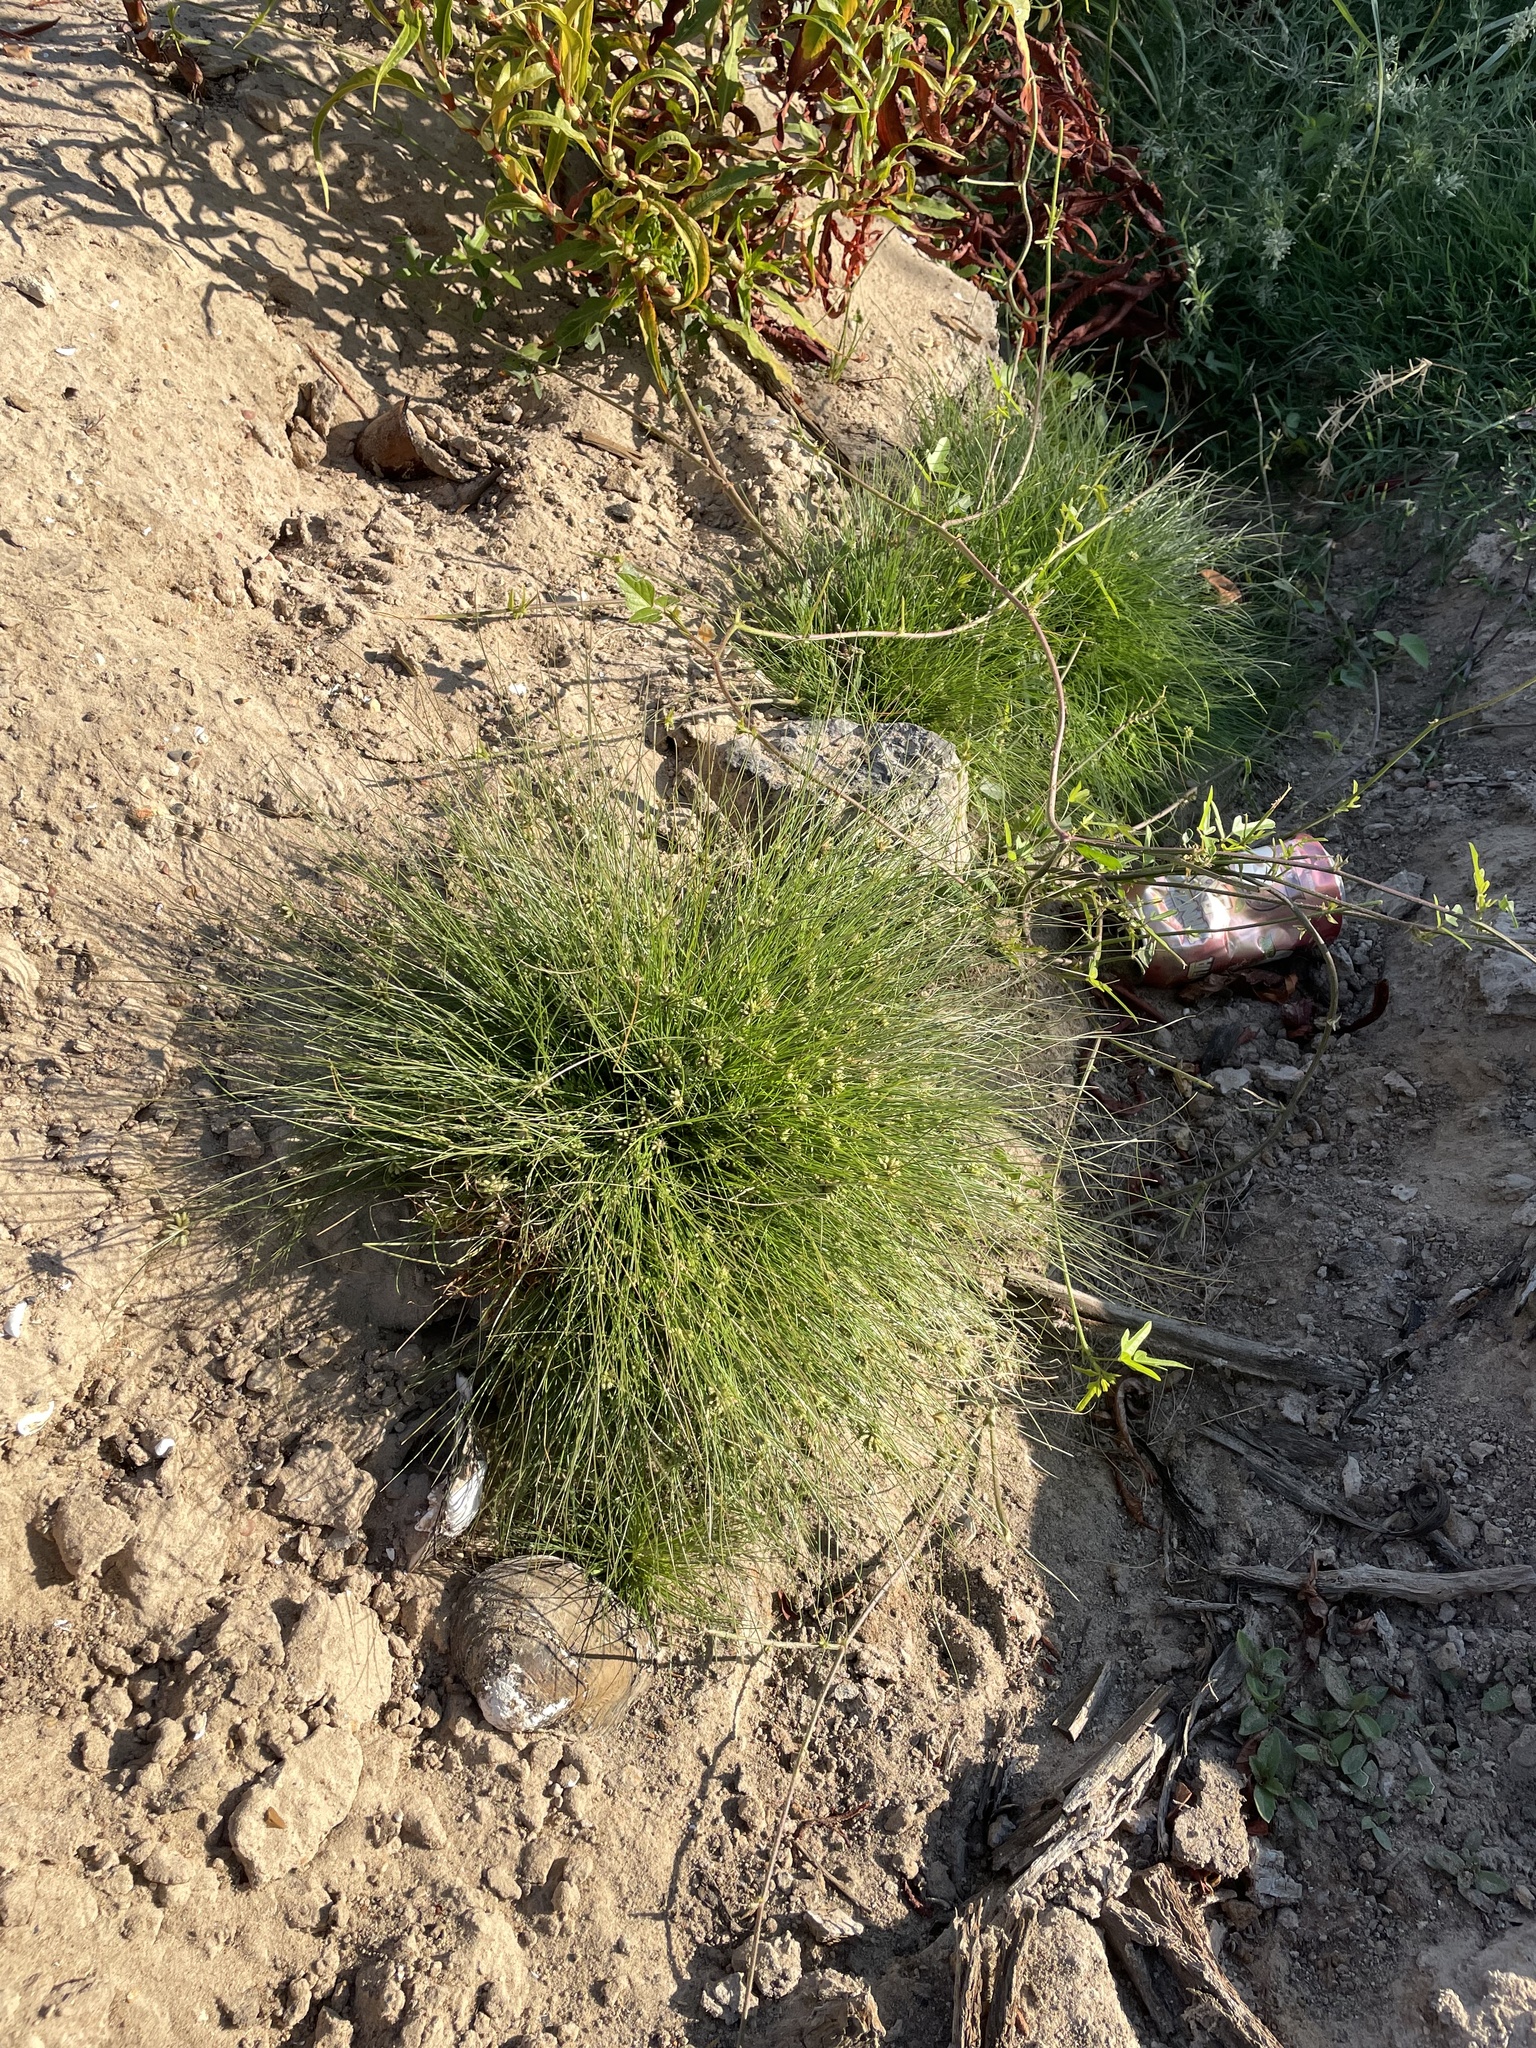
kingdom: Plantae
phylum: Tracheophyta
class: Liliopsida
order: Poales
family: Cyperaceae
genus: Fimbristylis
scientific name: Fimbristylis vahlii
